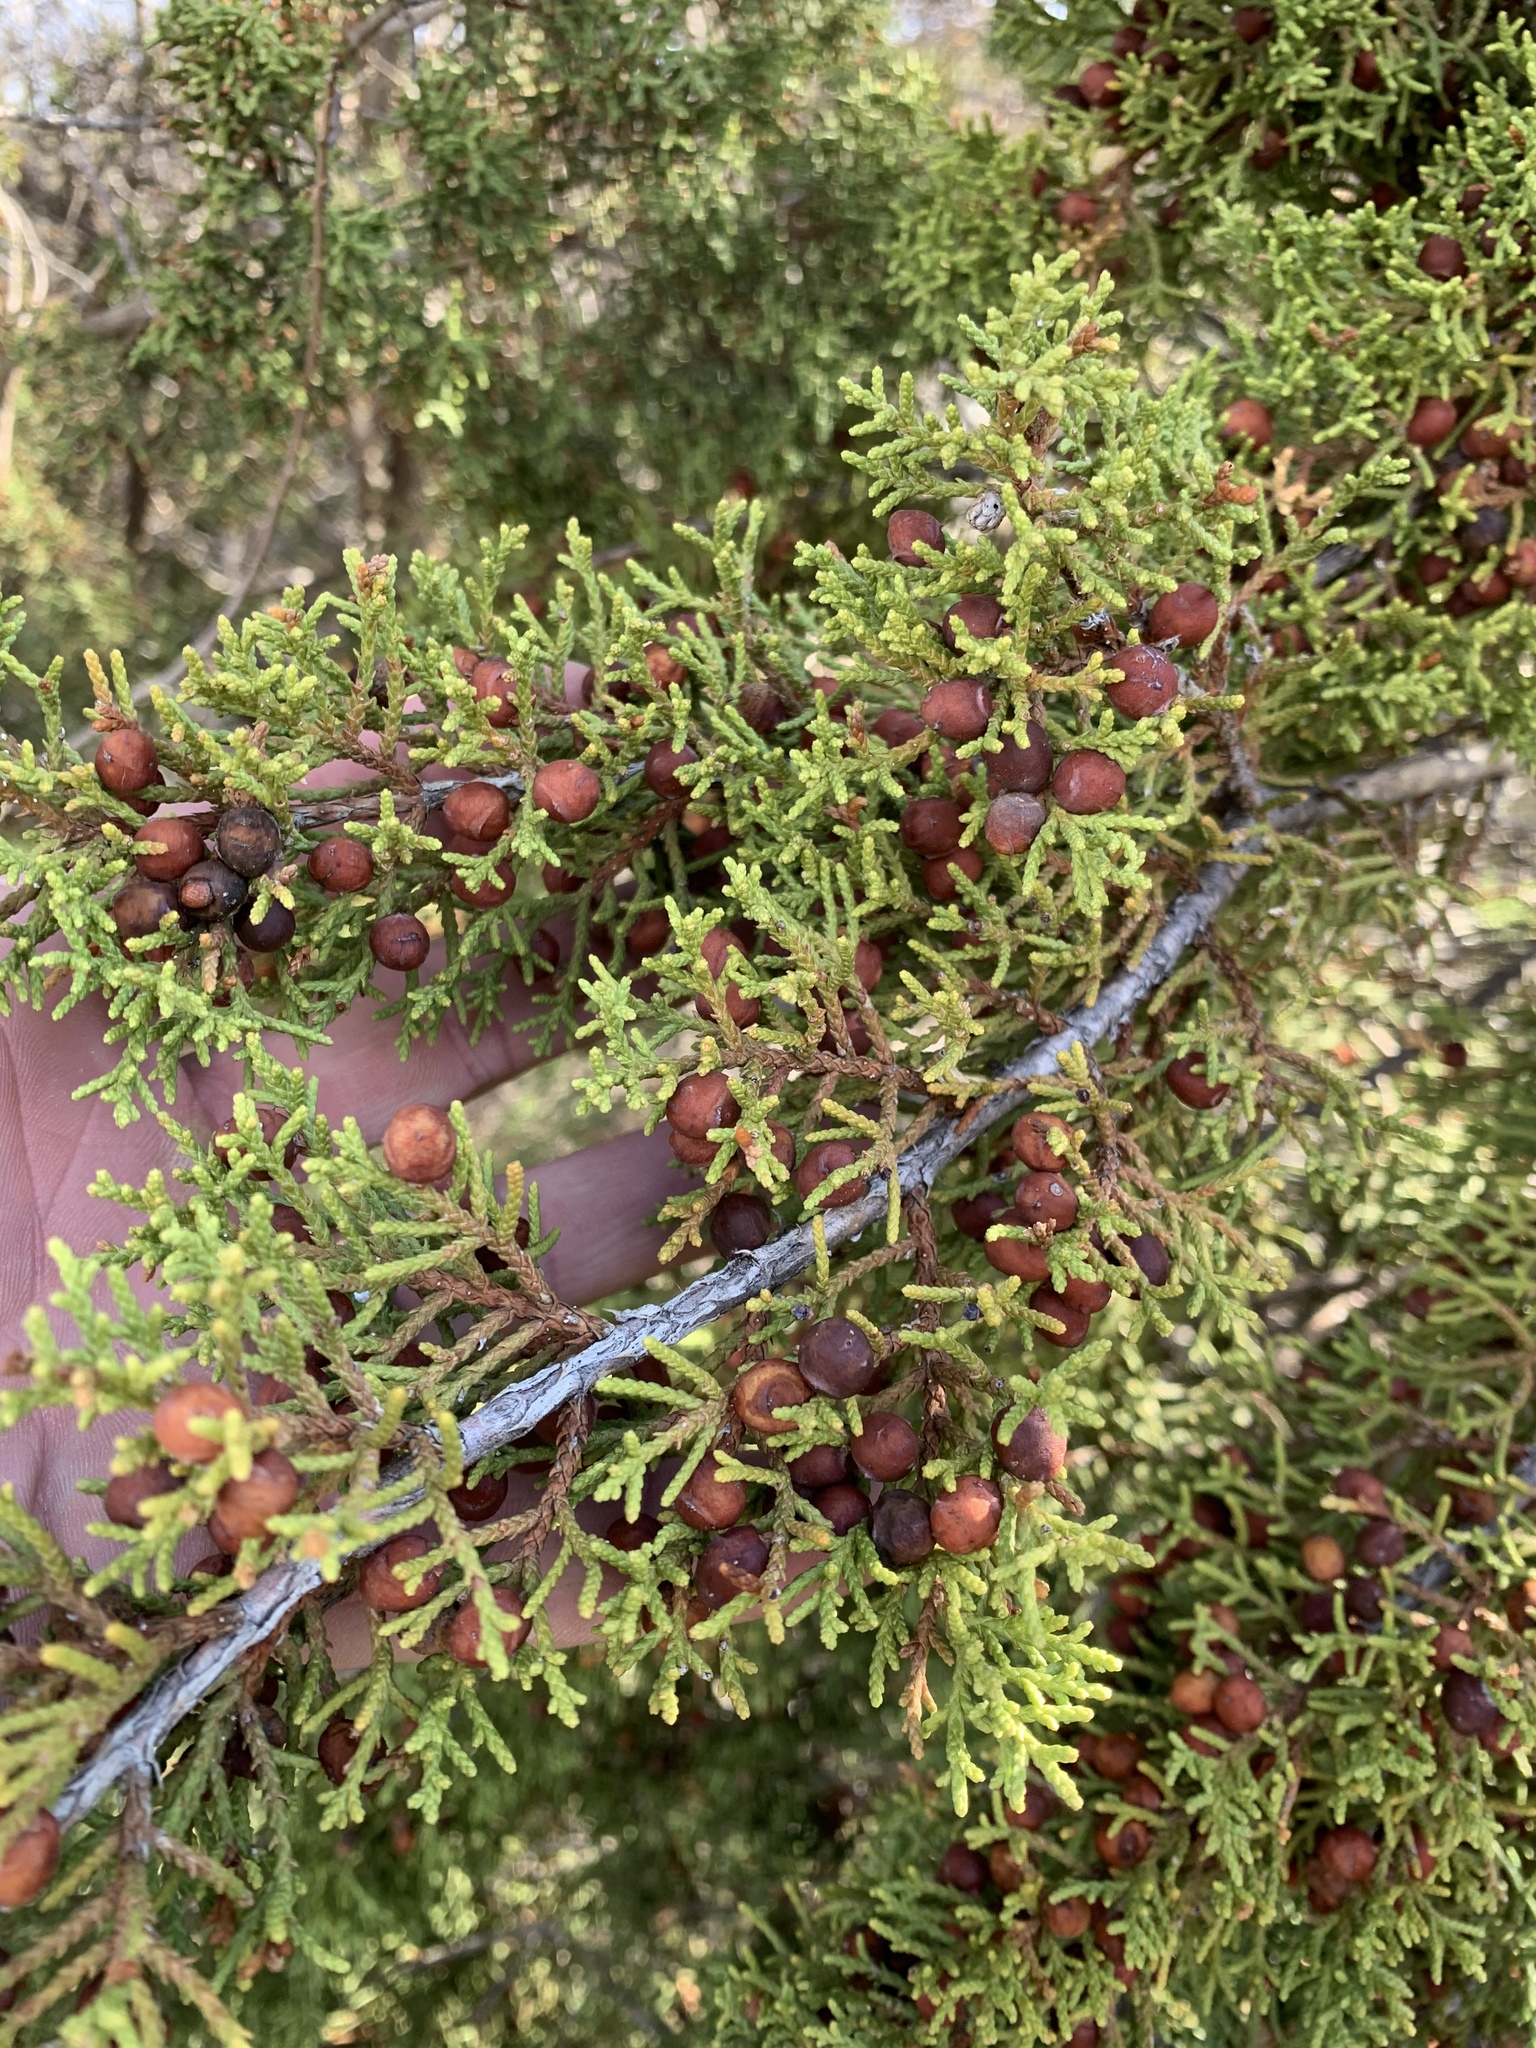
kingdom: Plantae
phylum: Tracheophyta
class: Pinopsida
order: Pinales
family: Cupressaceae
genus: Juniperus
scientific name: Juniperus pinchotii
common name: Pinchot juniper
